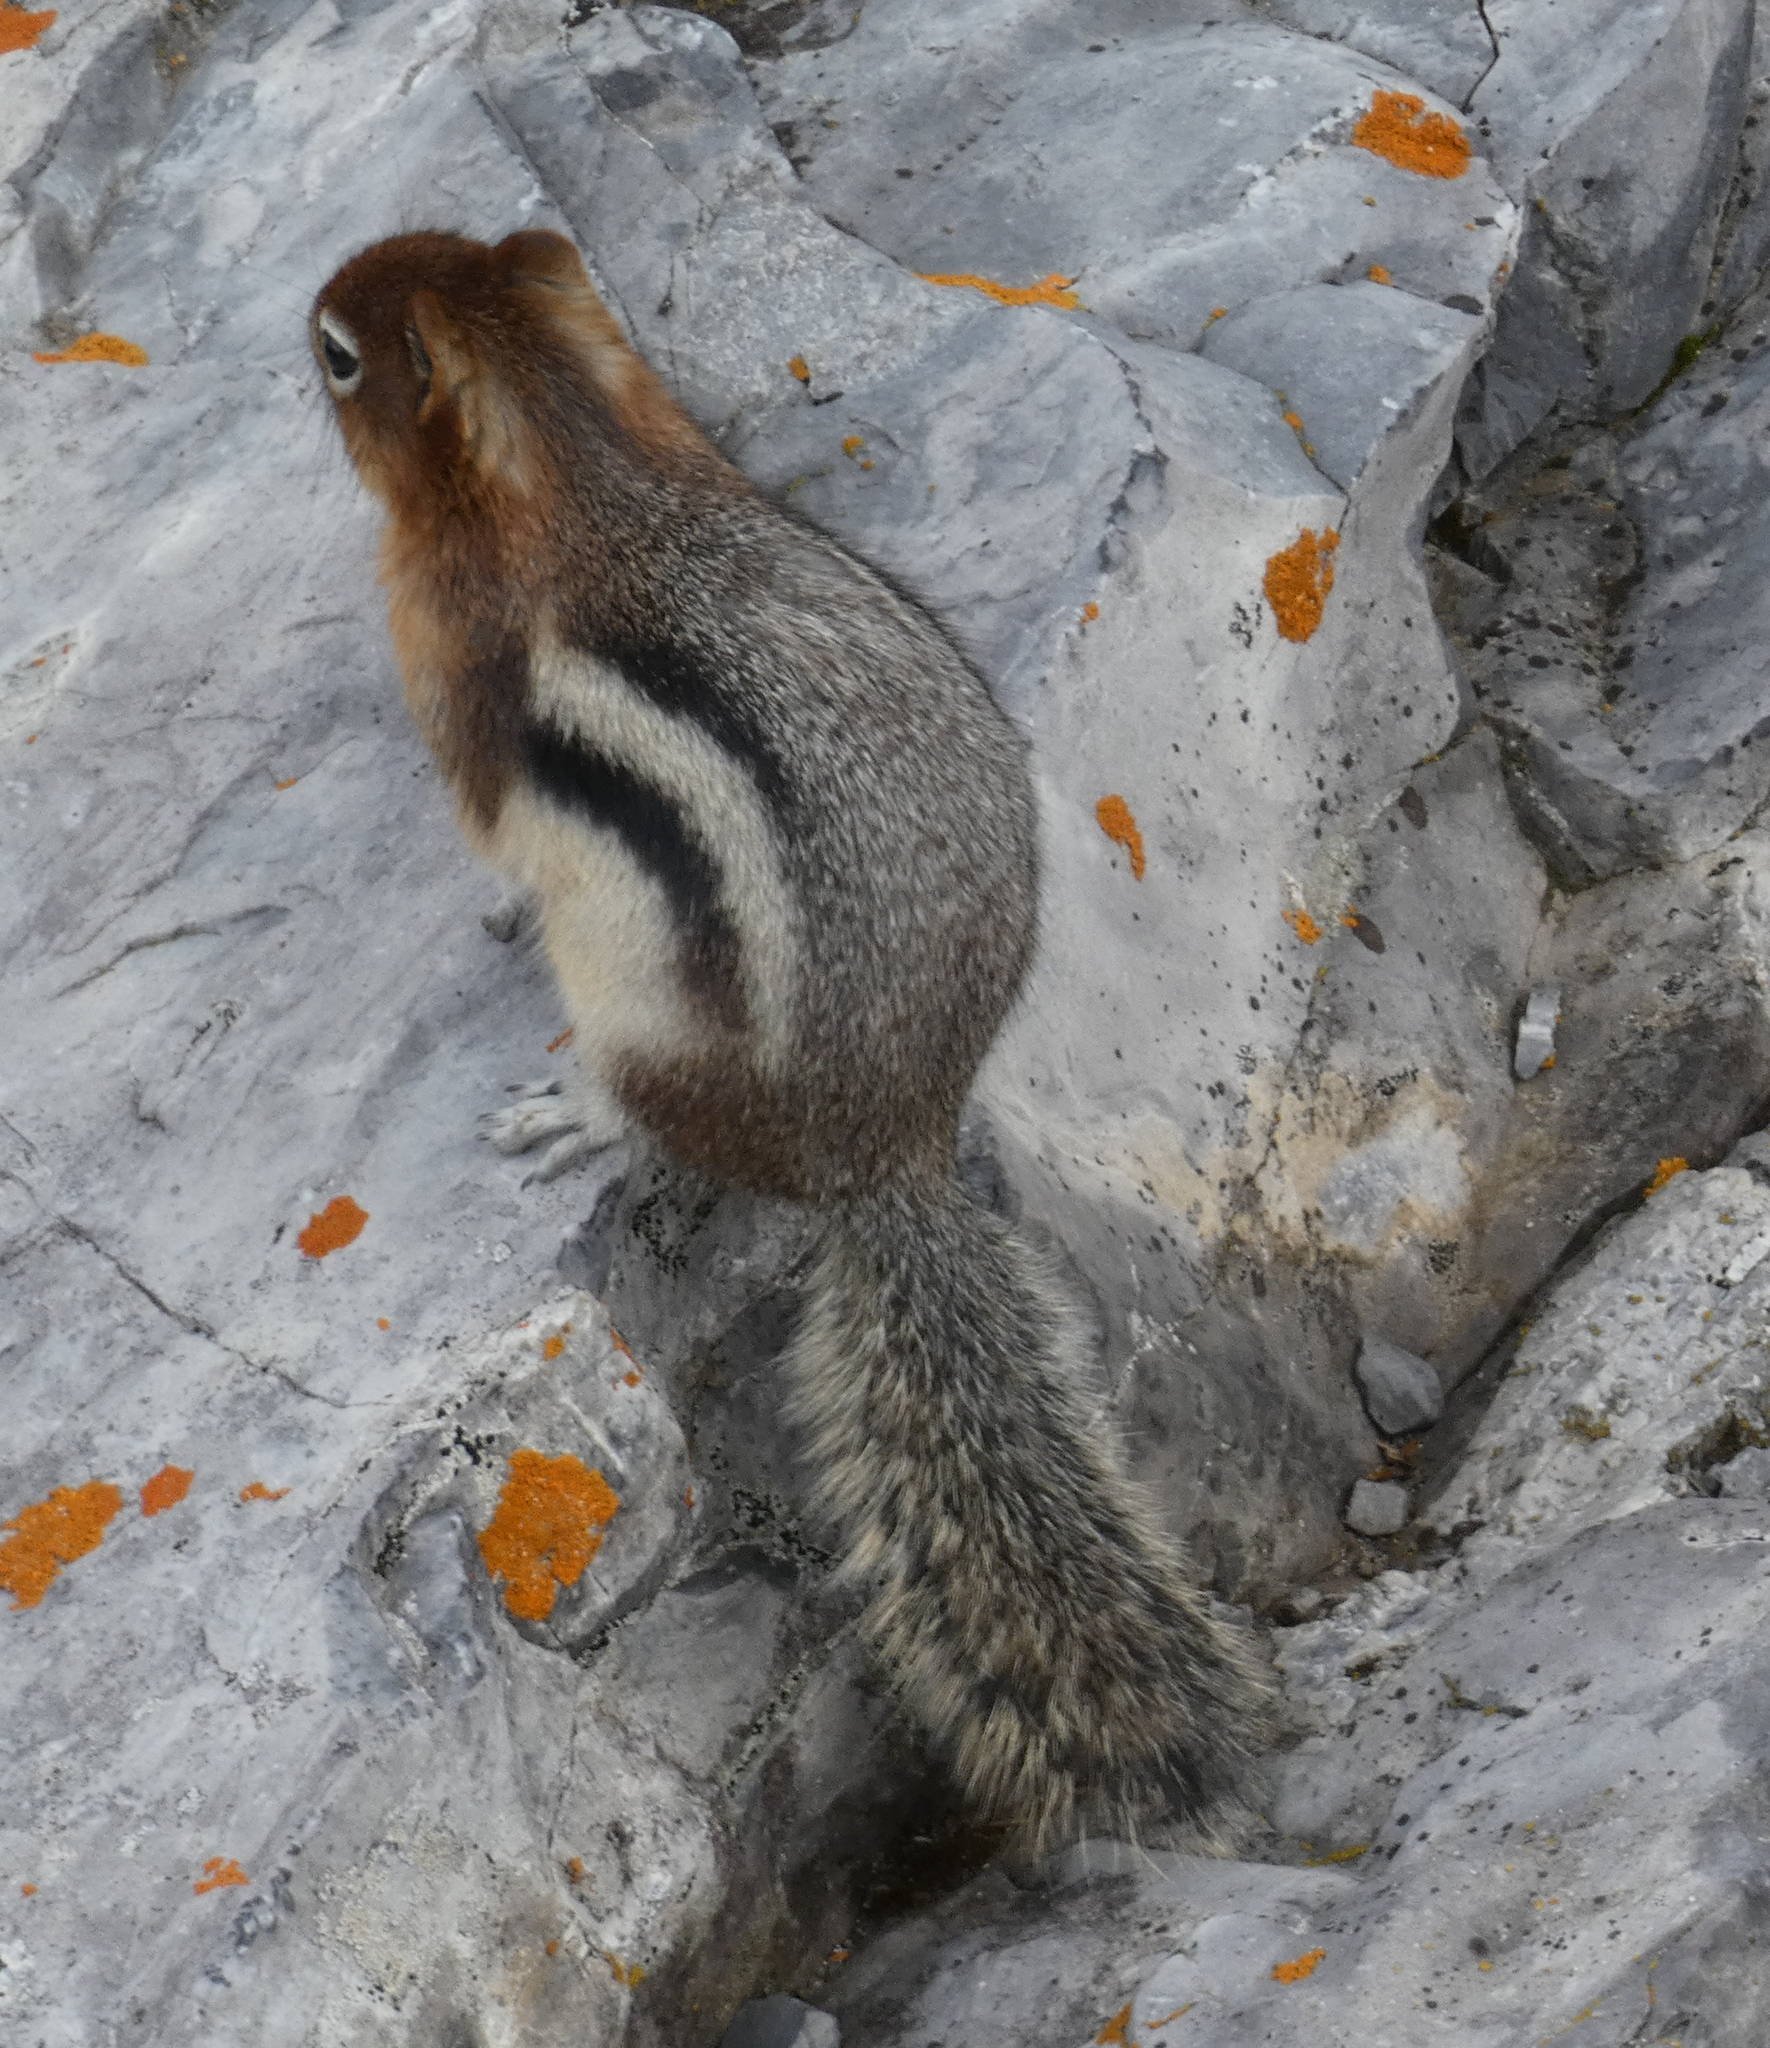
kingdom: Animalia
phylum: Chordata
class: Mammalia
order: Rodentia
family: Sciuridae
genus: Callospermophilus
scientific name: Callospermophilus lateralis
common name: Golden-mantled ground squirrel
